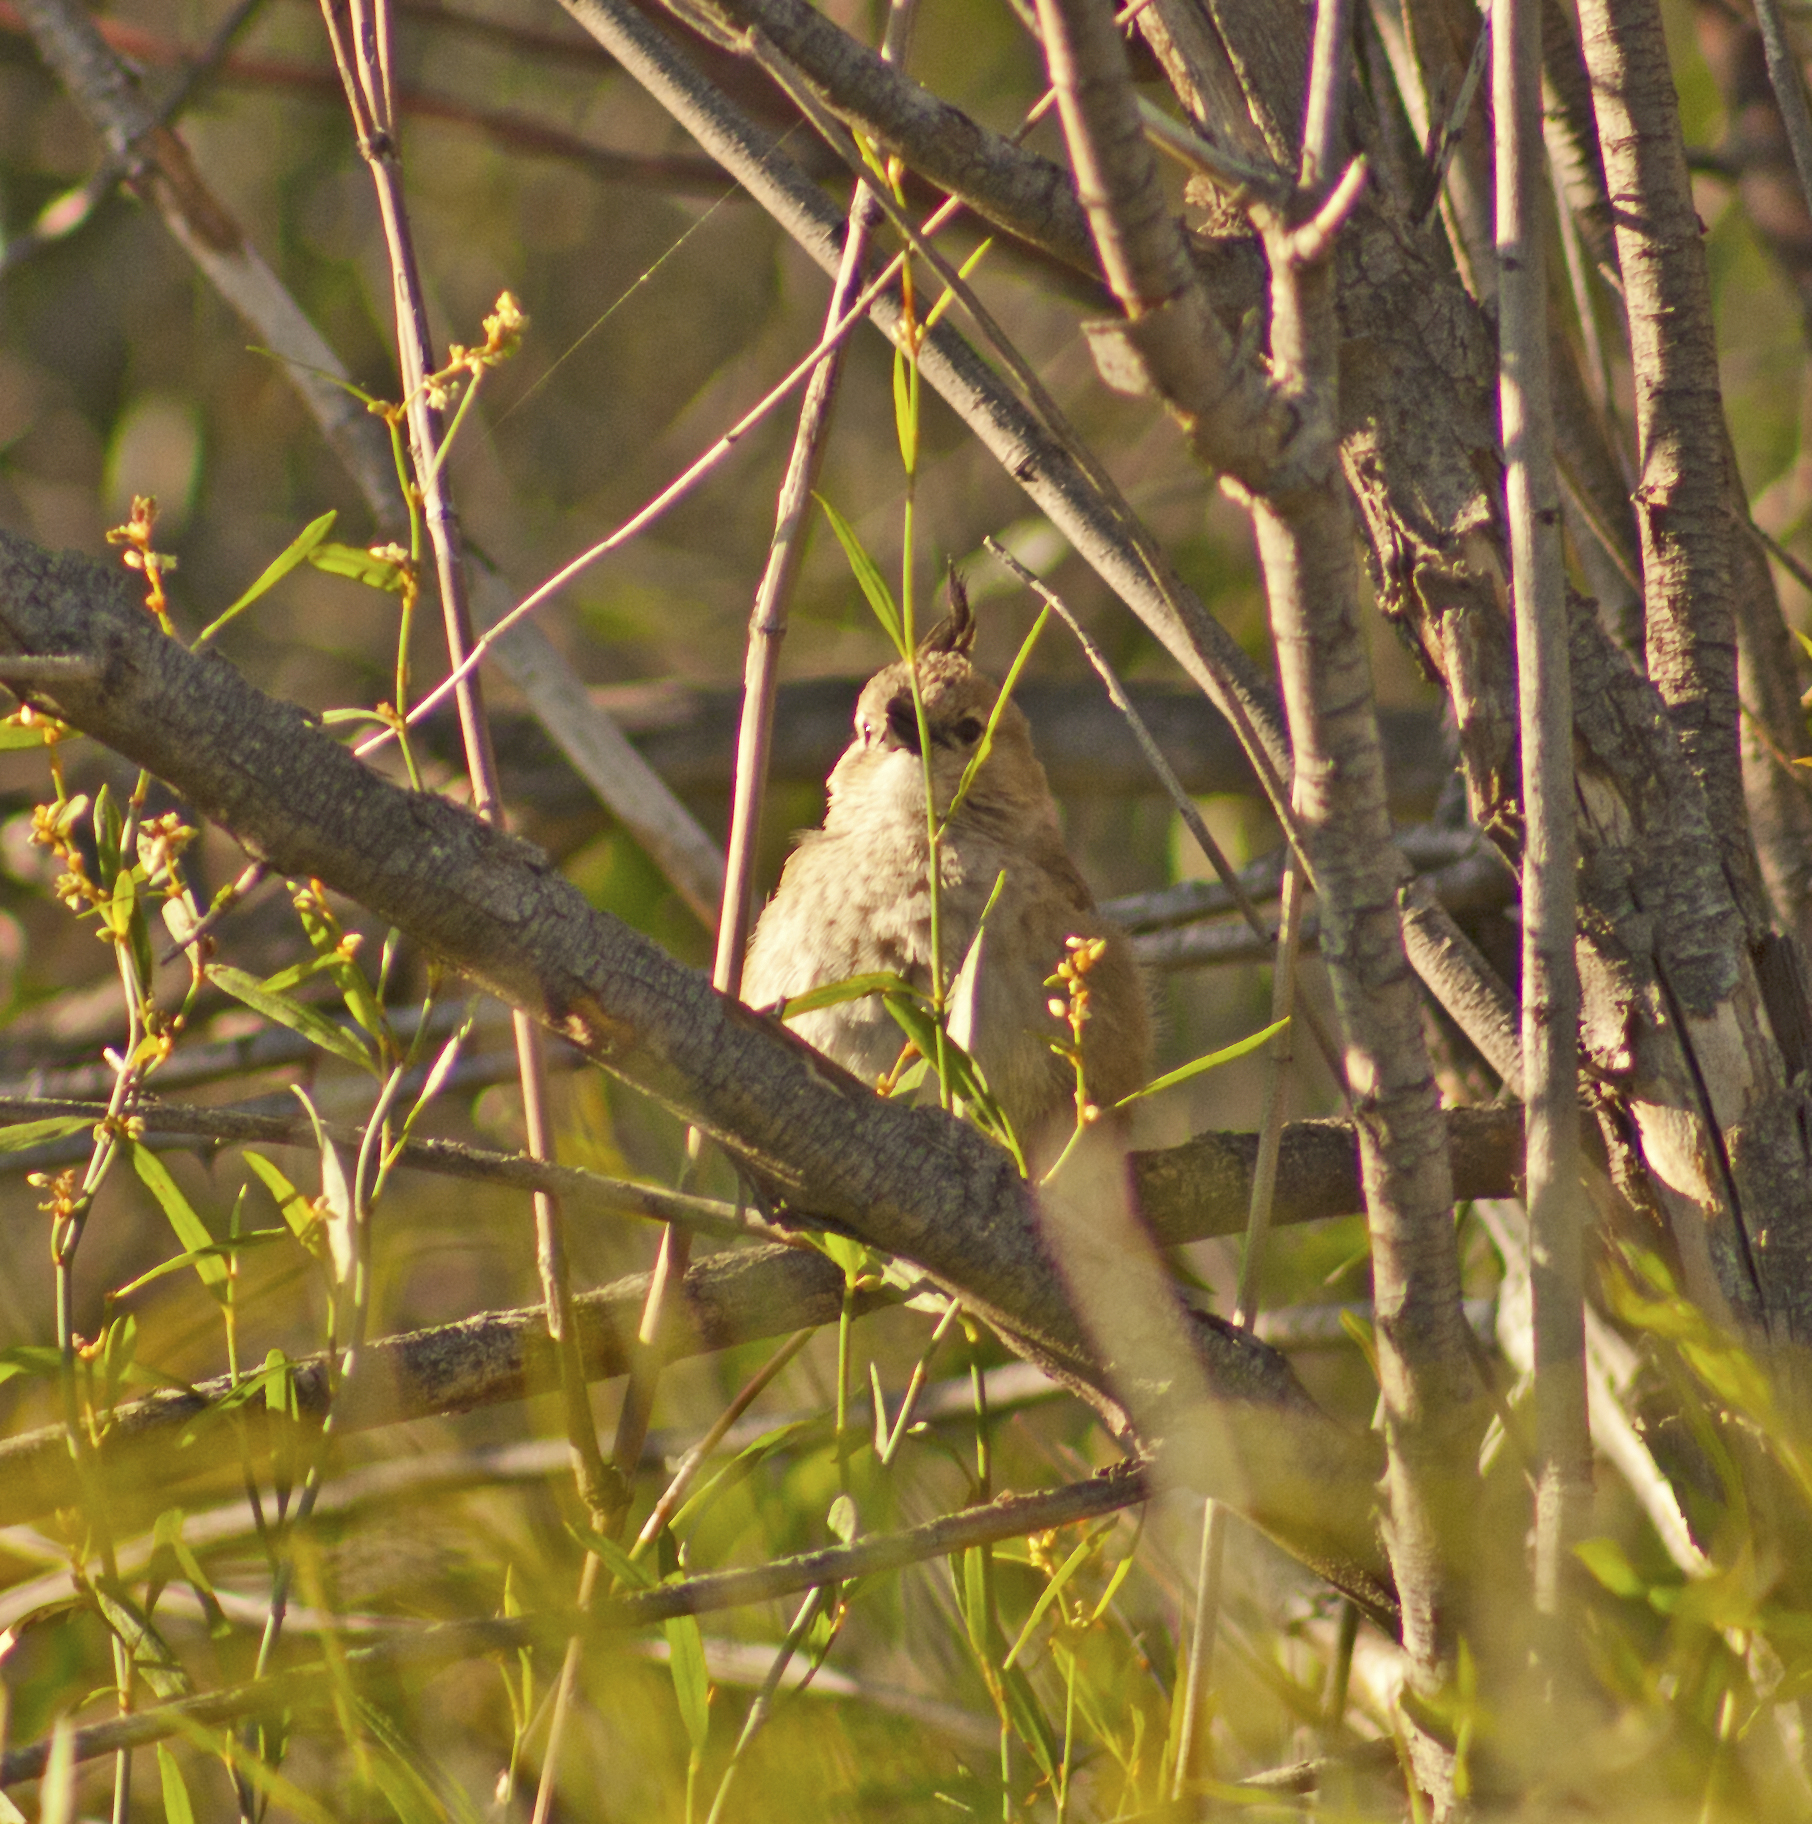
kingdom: Animalia
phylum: Chordata
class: Aves
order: Passeriformes
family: Psophodidae
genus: Psophodes
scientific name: Psophodes cristatus
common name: Chirruping wedgebill
